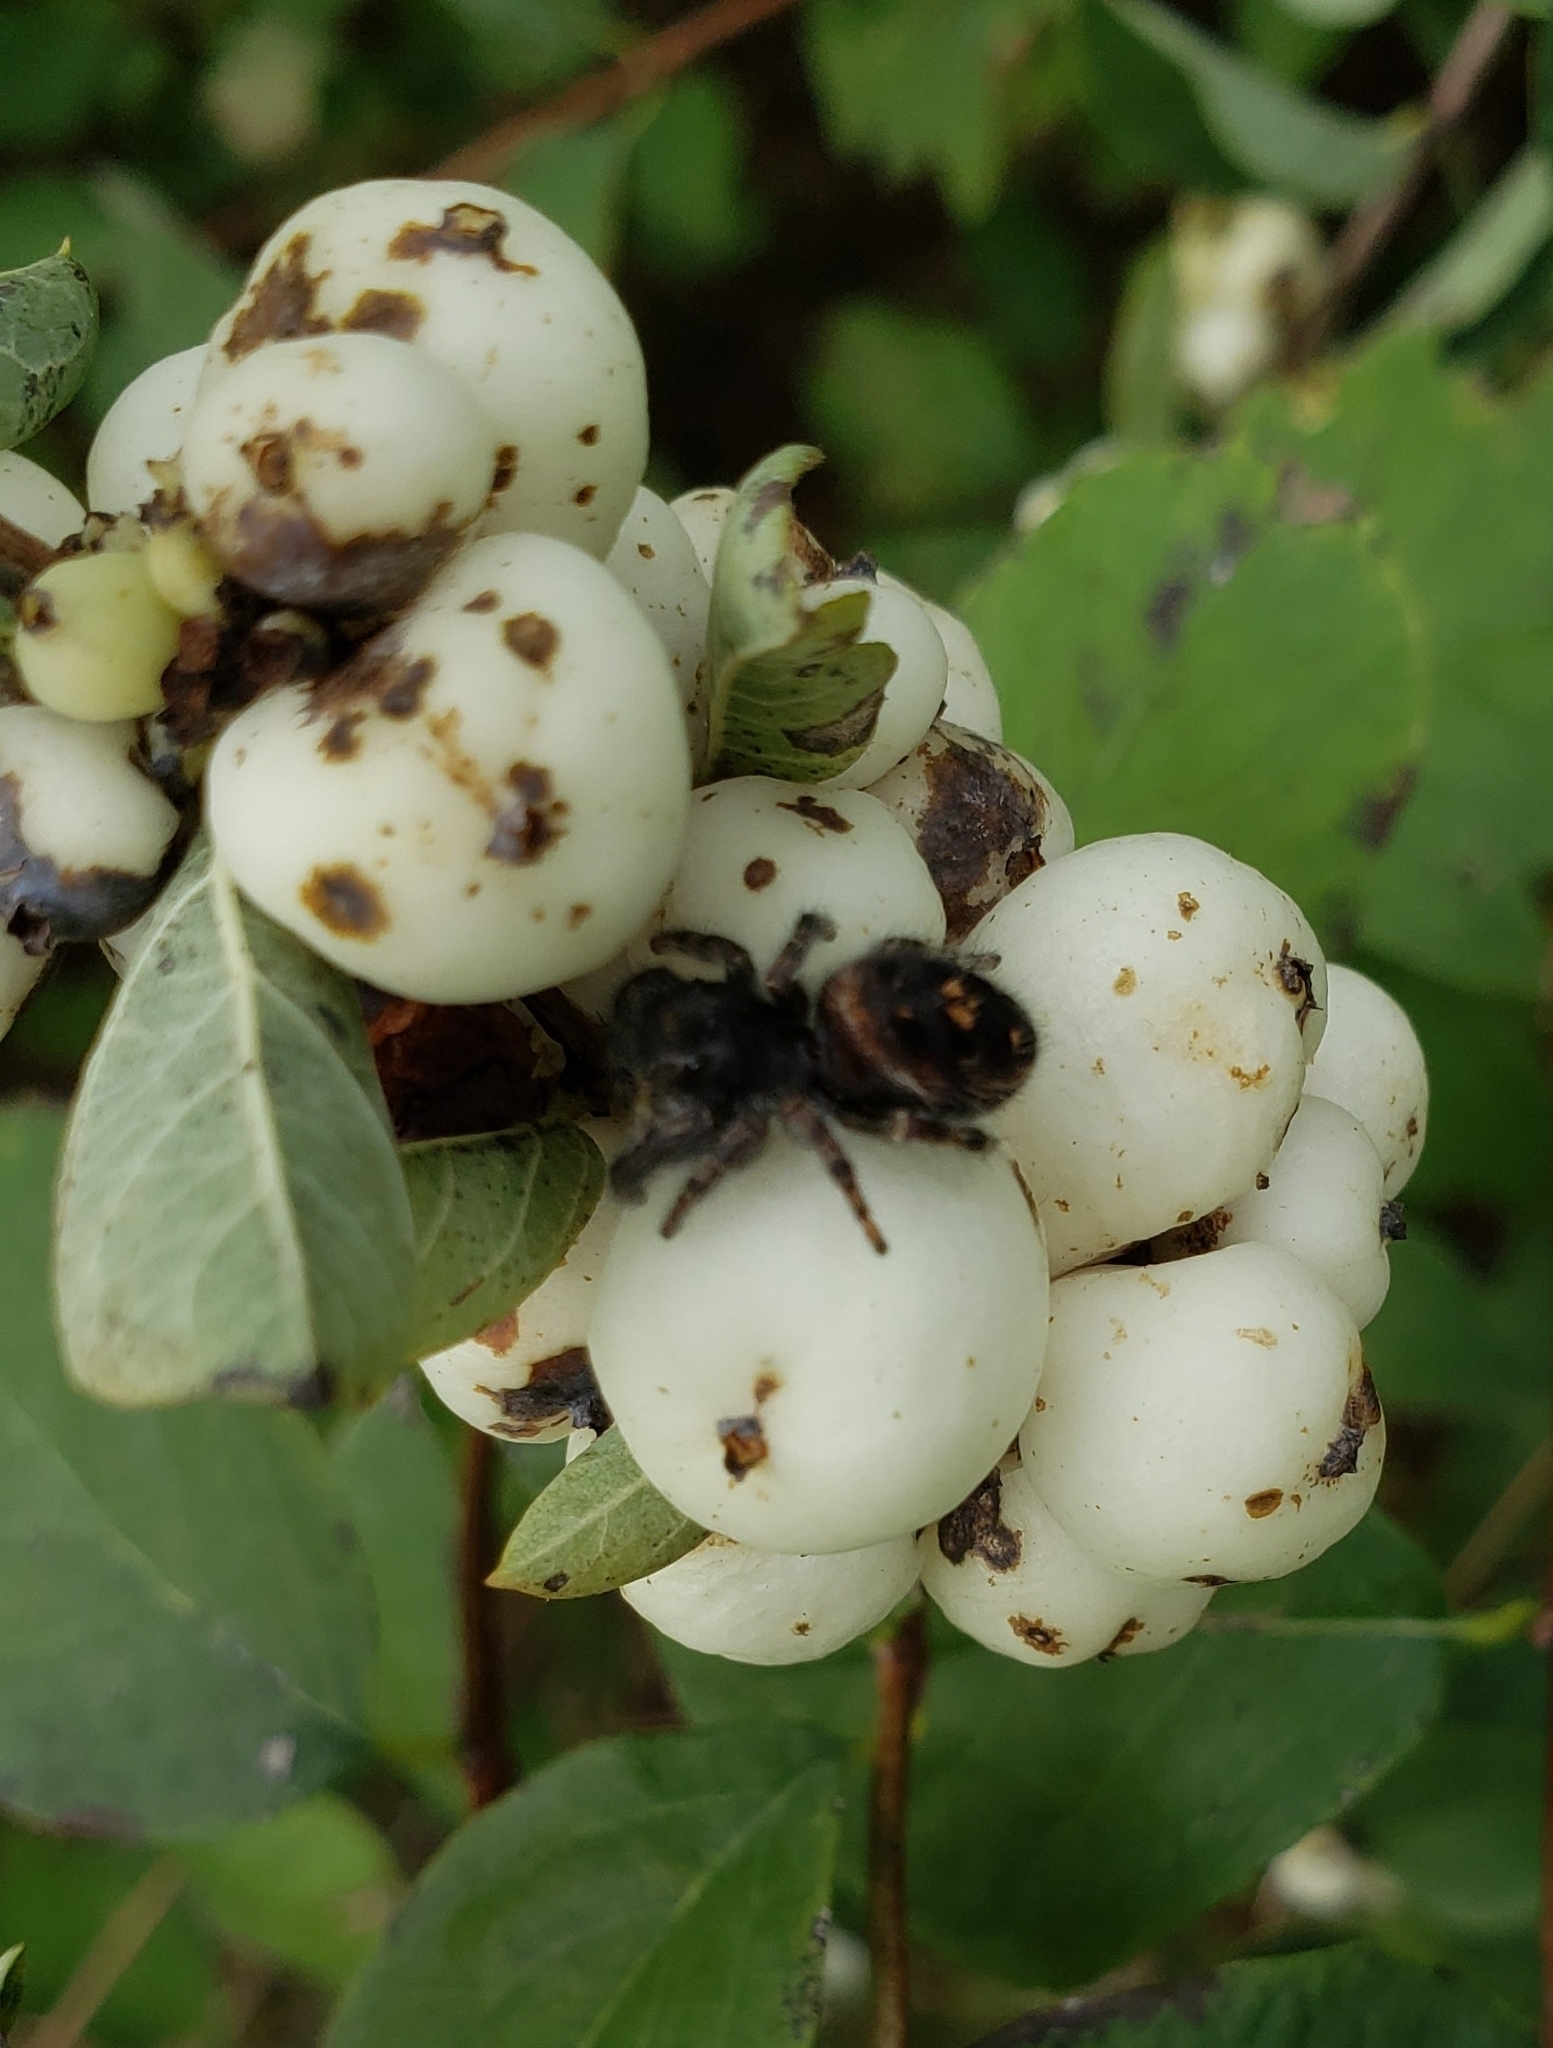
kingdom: Animalia
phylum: Arthropoda
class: Arachnida
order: Araneae
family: Salticidae
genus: Phidippus
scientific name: Phidippus audax
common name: Bold jumper
